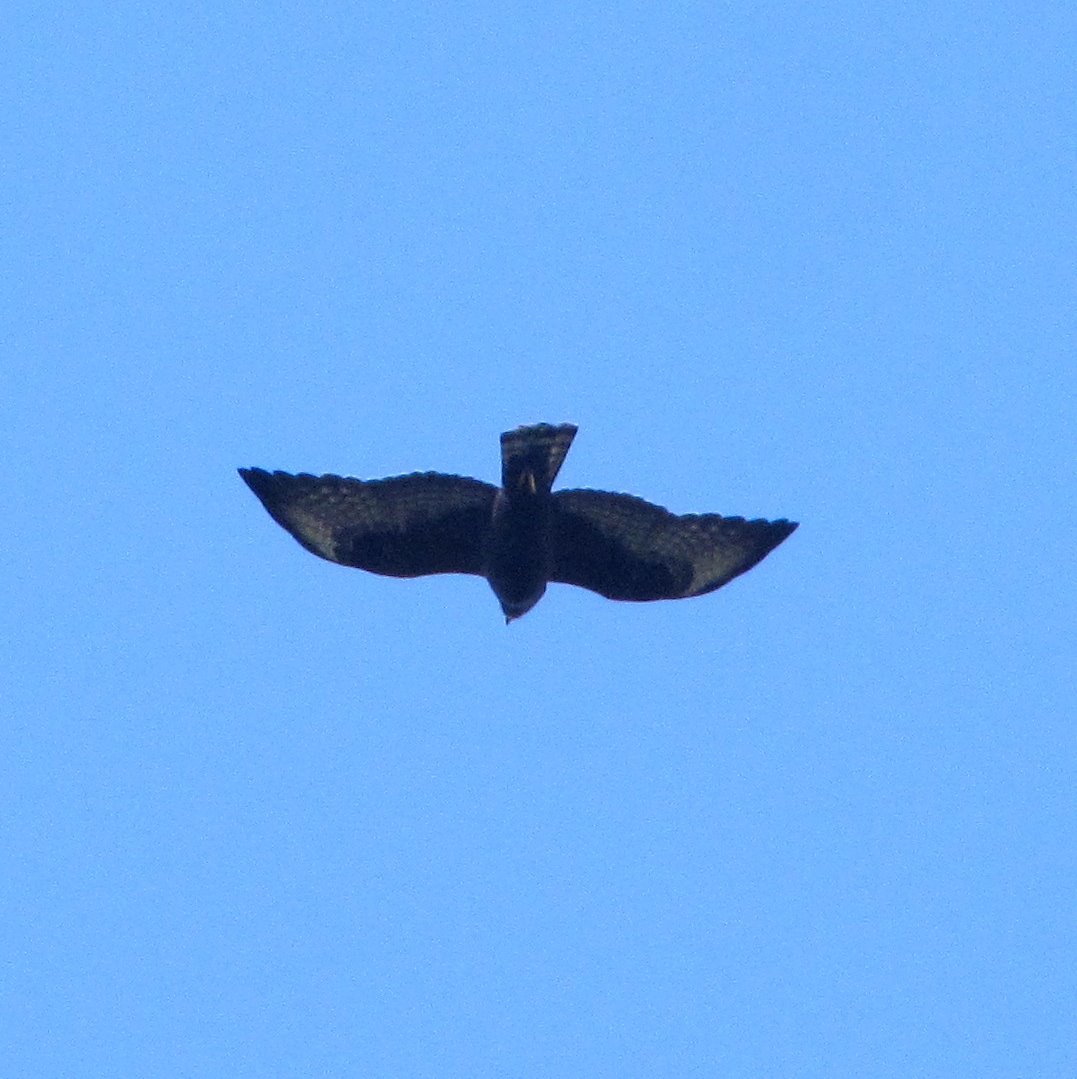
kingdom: Animalia
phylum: Chordata
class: Aves
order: Accipitriformes
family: Accipitridae
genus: Buteo
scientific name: Buteo brachyurus
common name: Short-tailed hawk
